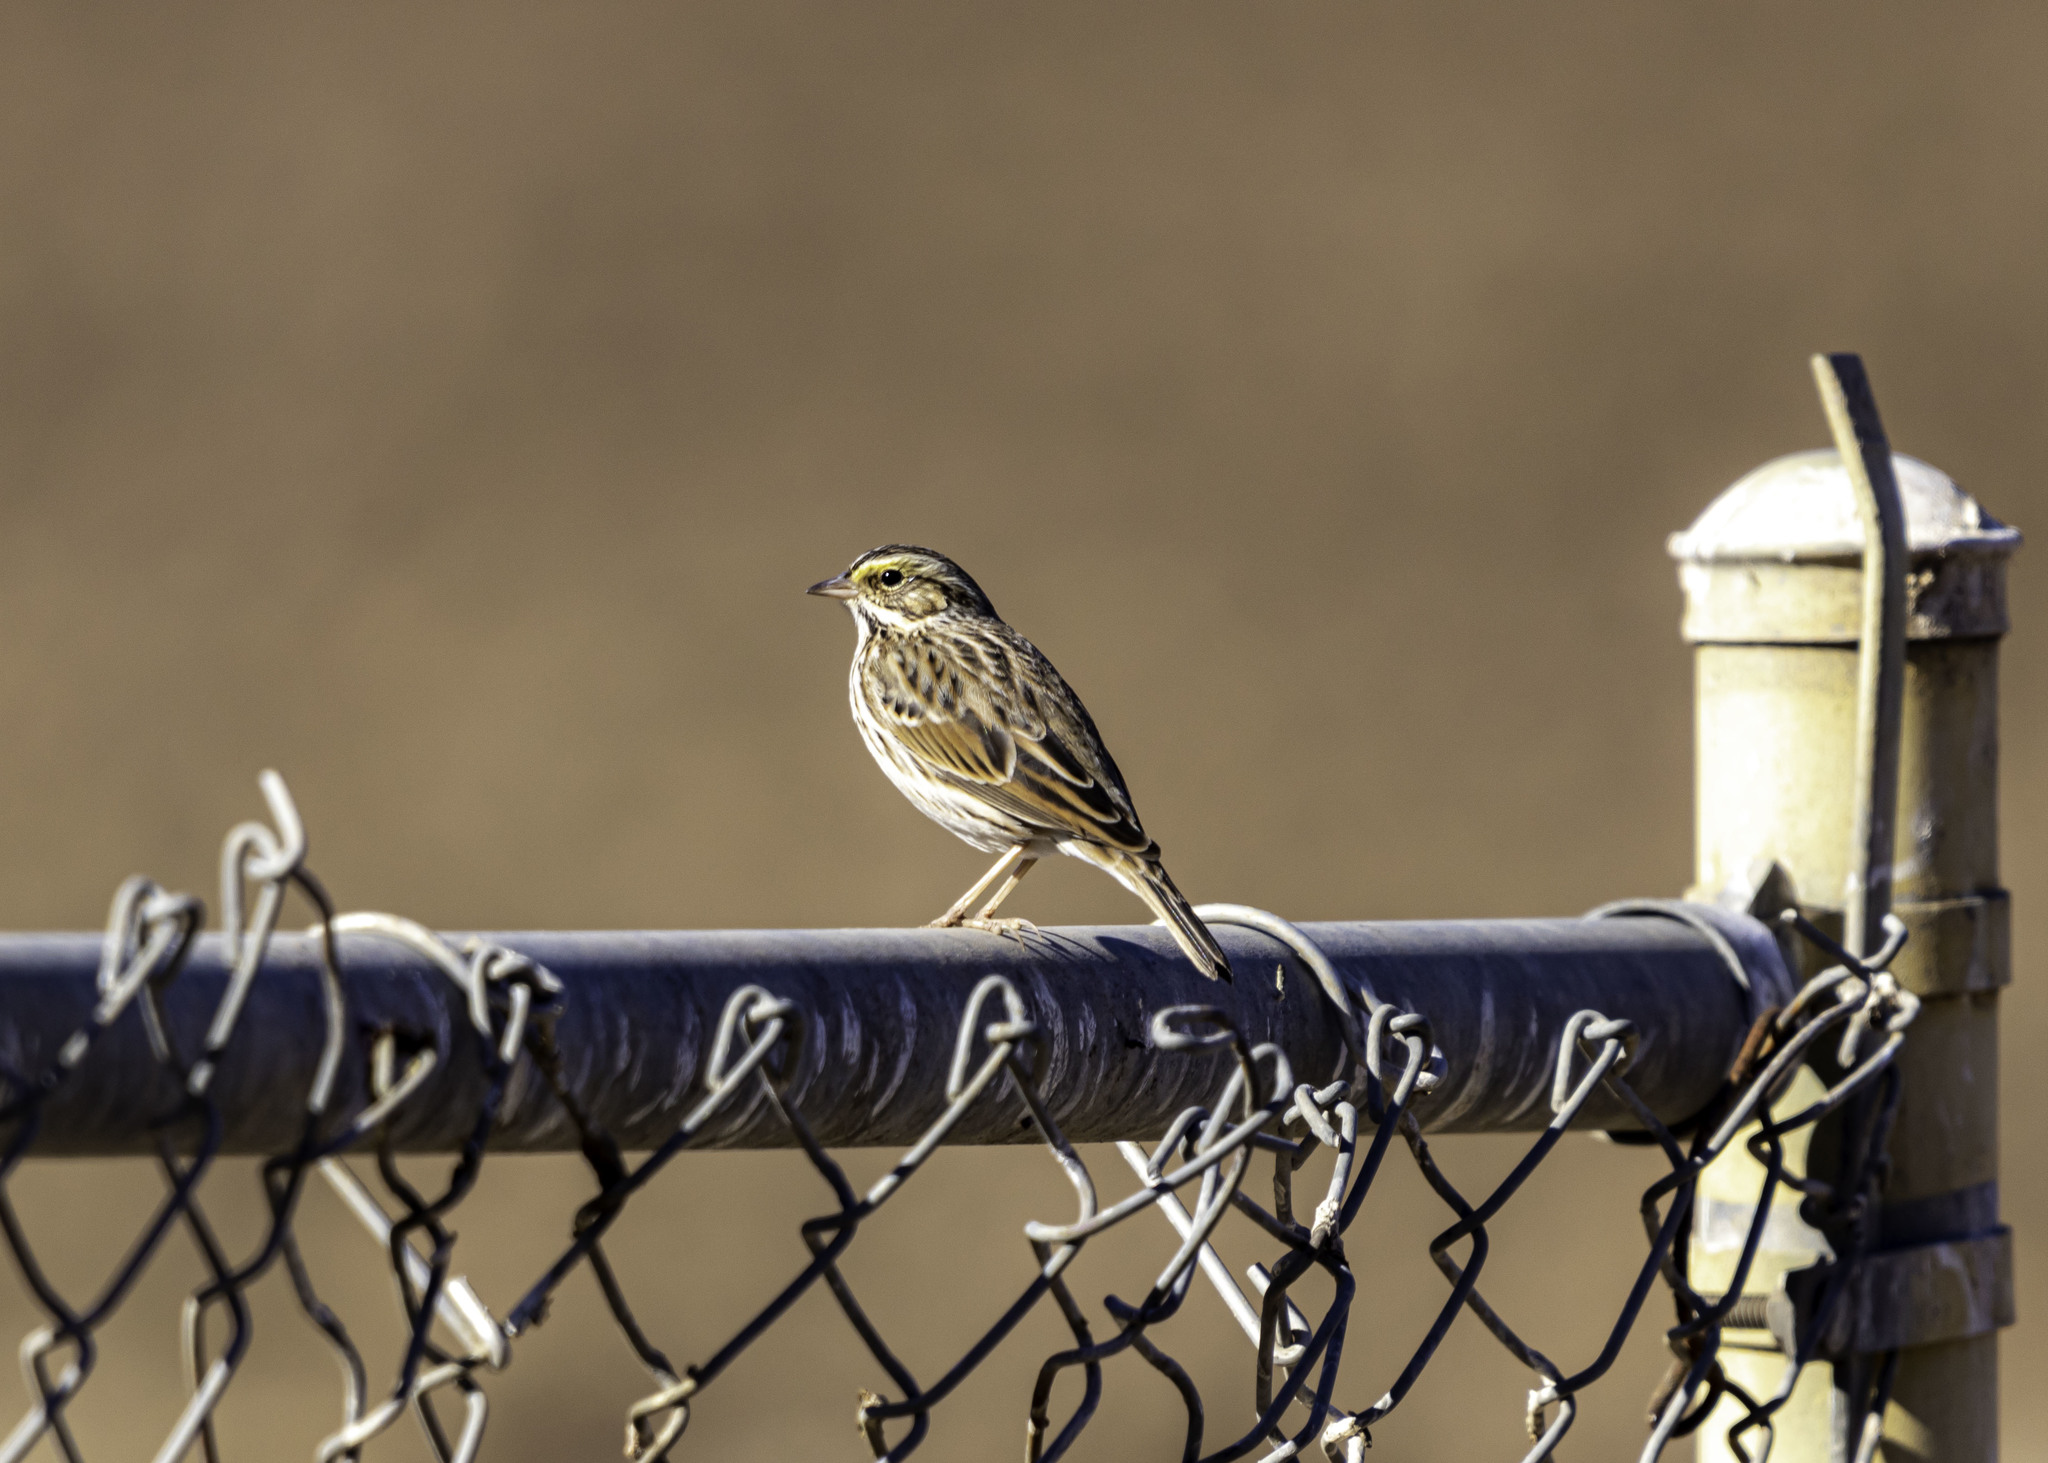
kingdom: Animalia
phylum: Chordata
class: Aves
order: Passeriformes
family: Passerellidae
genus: Passerculus
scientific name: Passerculus sandwichensis
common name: Savannah sparrow
